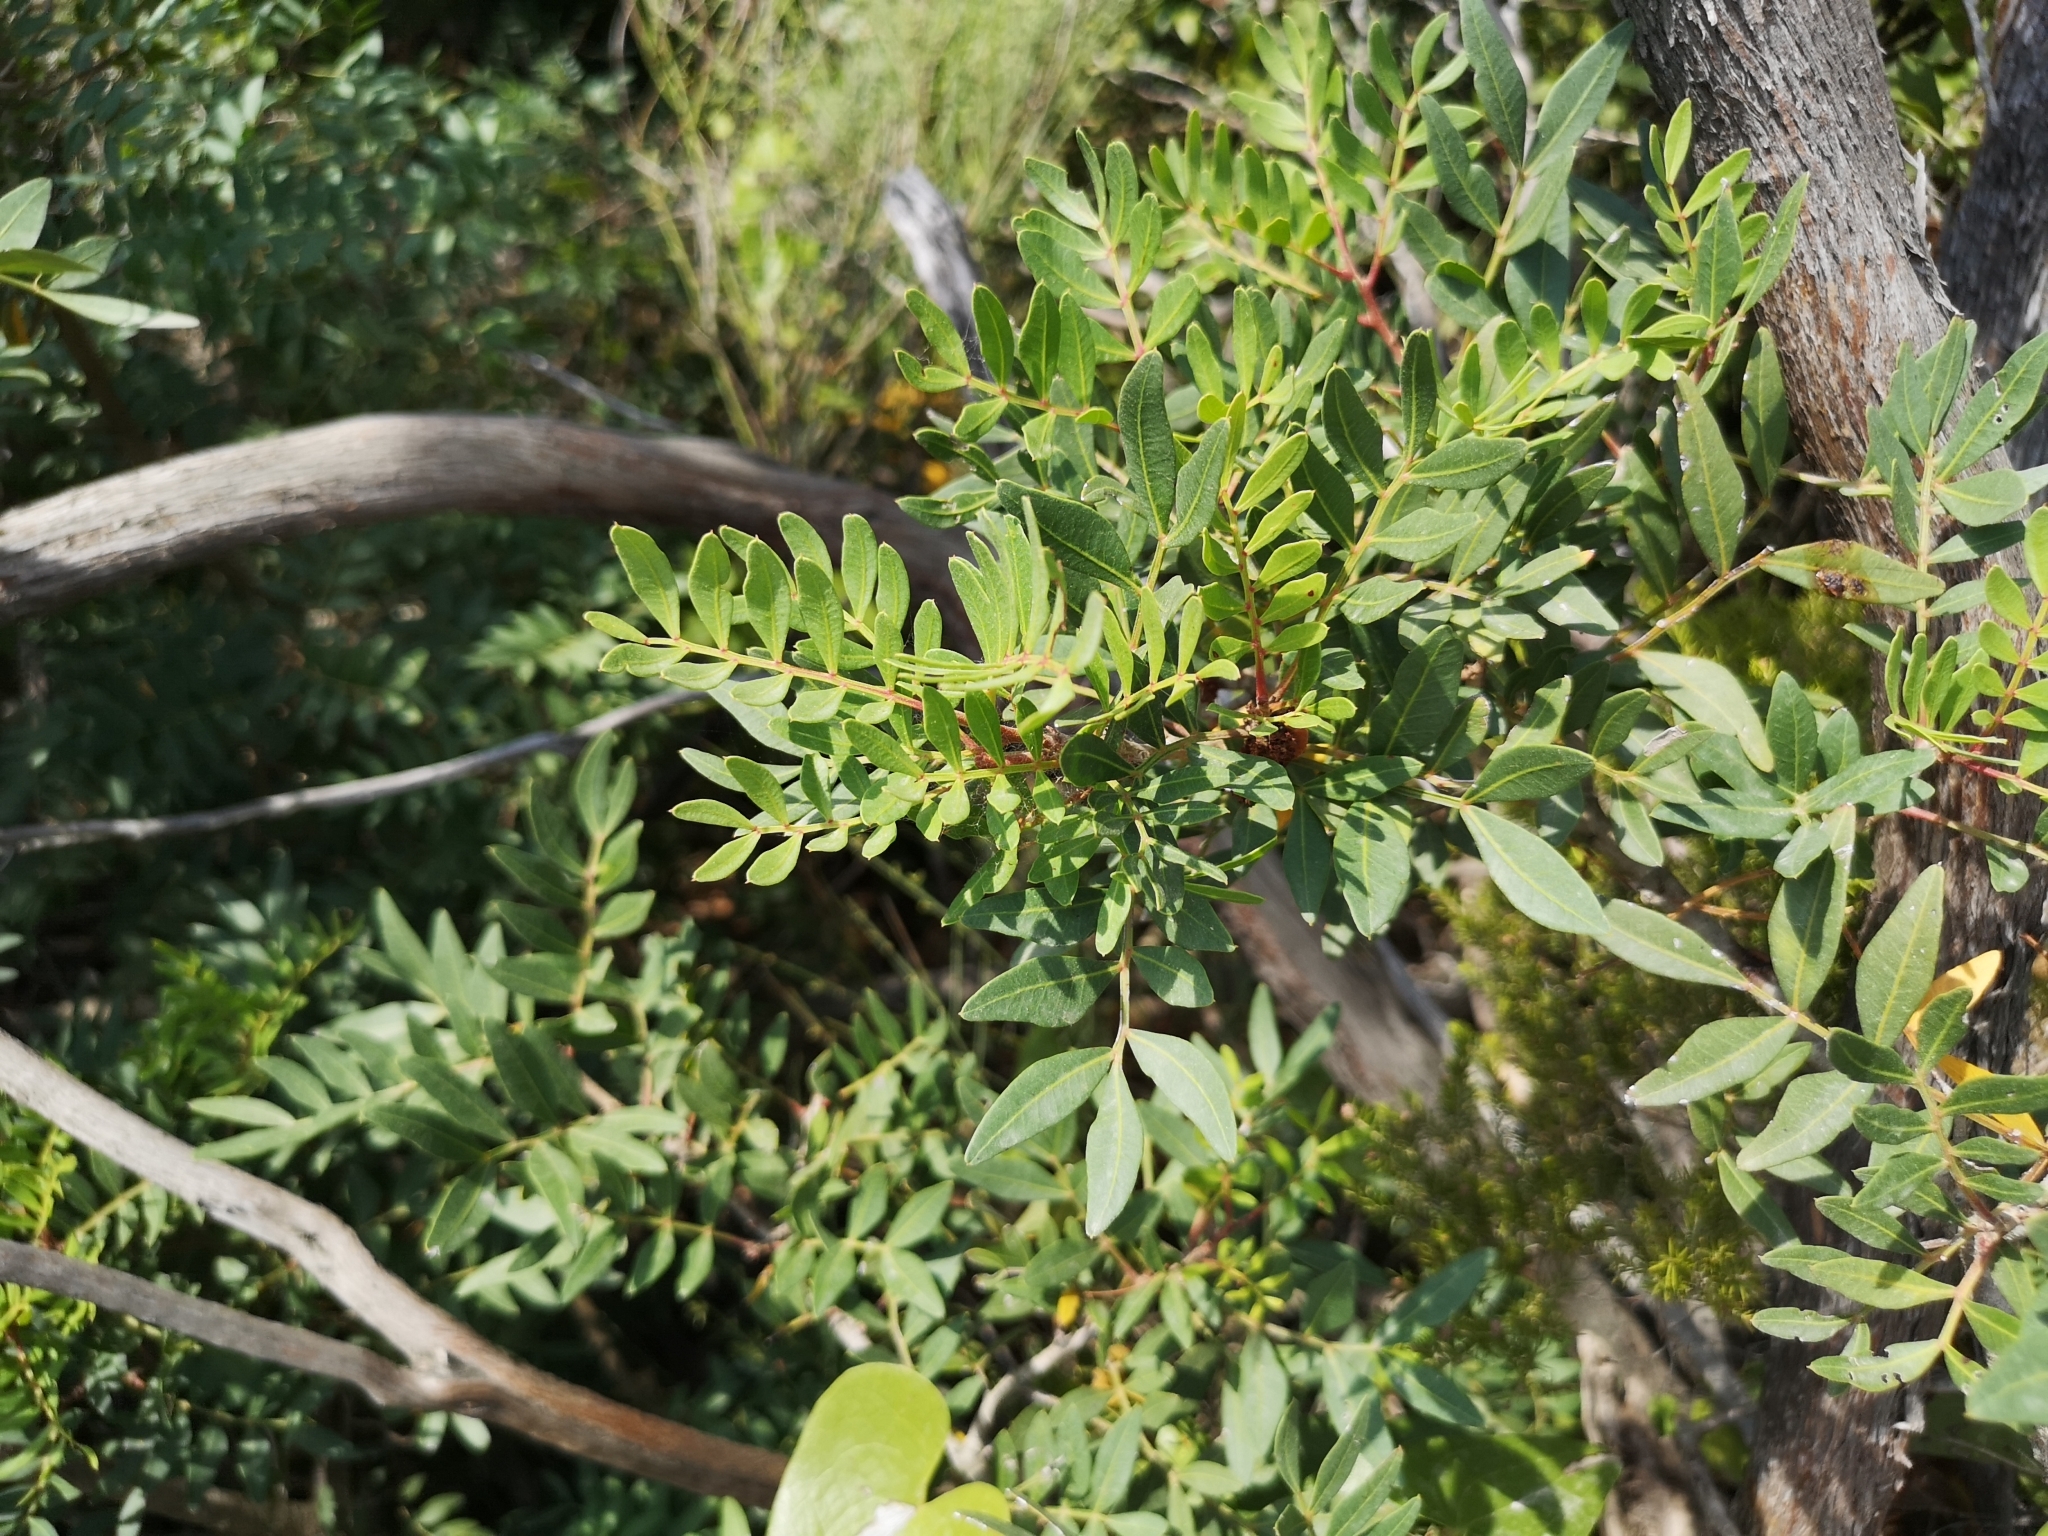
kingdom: Plantae
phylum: Tracheophyta
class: Magnoliopsida
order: Sapindales
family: Anacardiaceae
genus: Pistacia
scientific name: Pistacia lentiscus
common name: Lentisk
